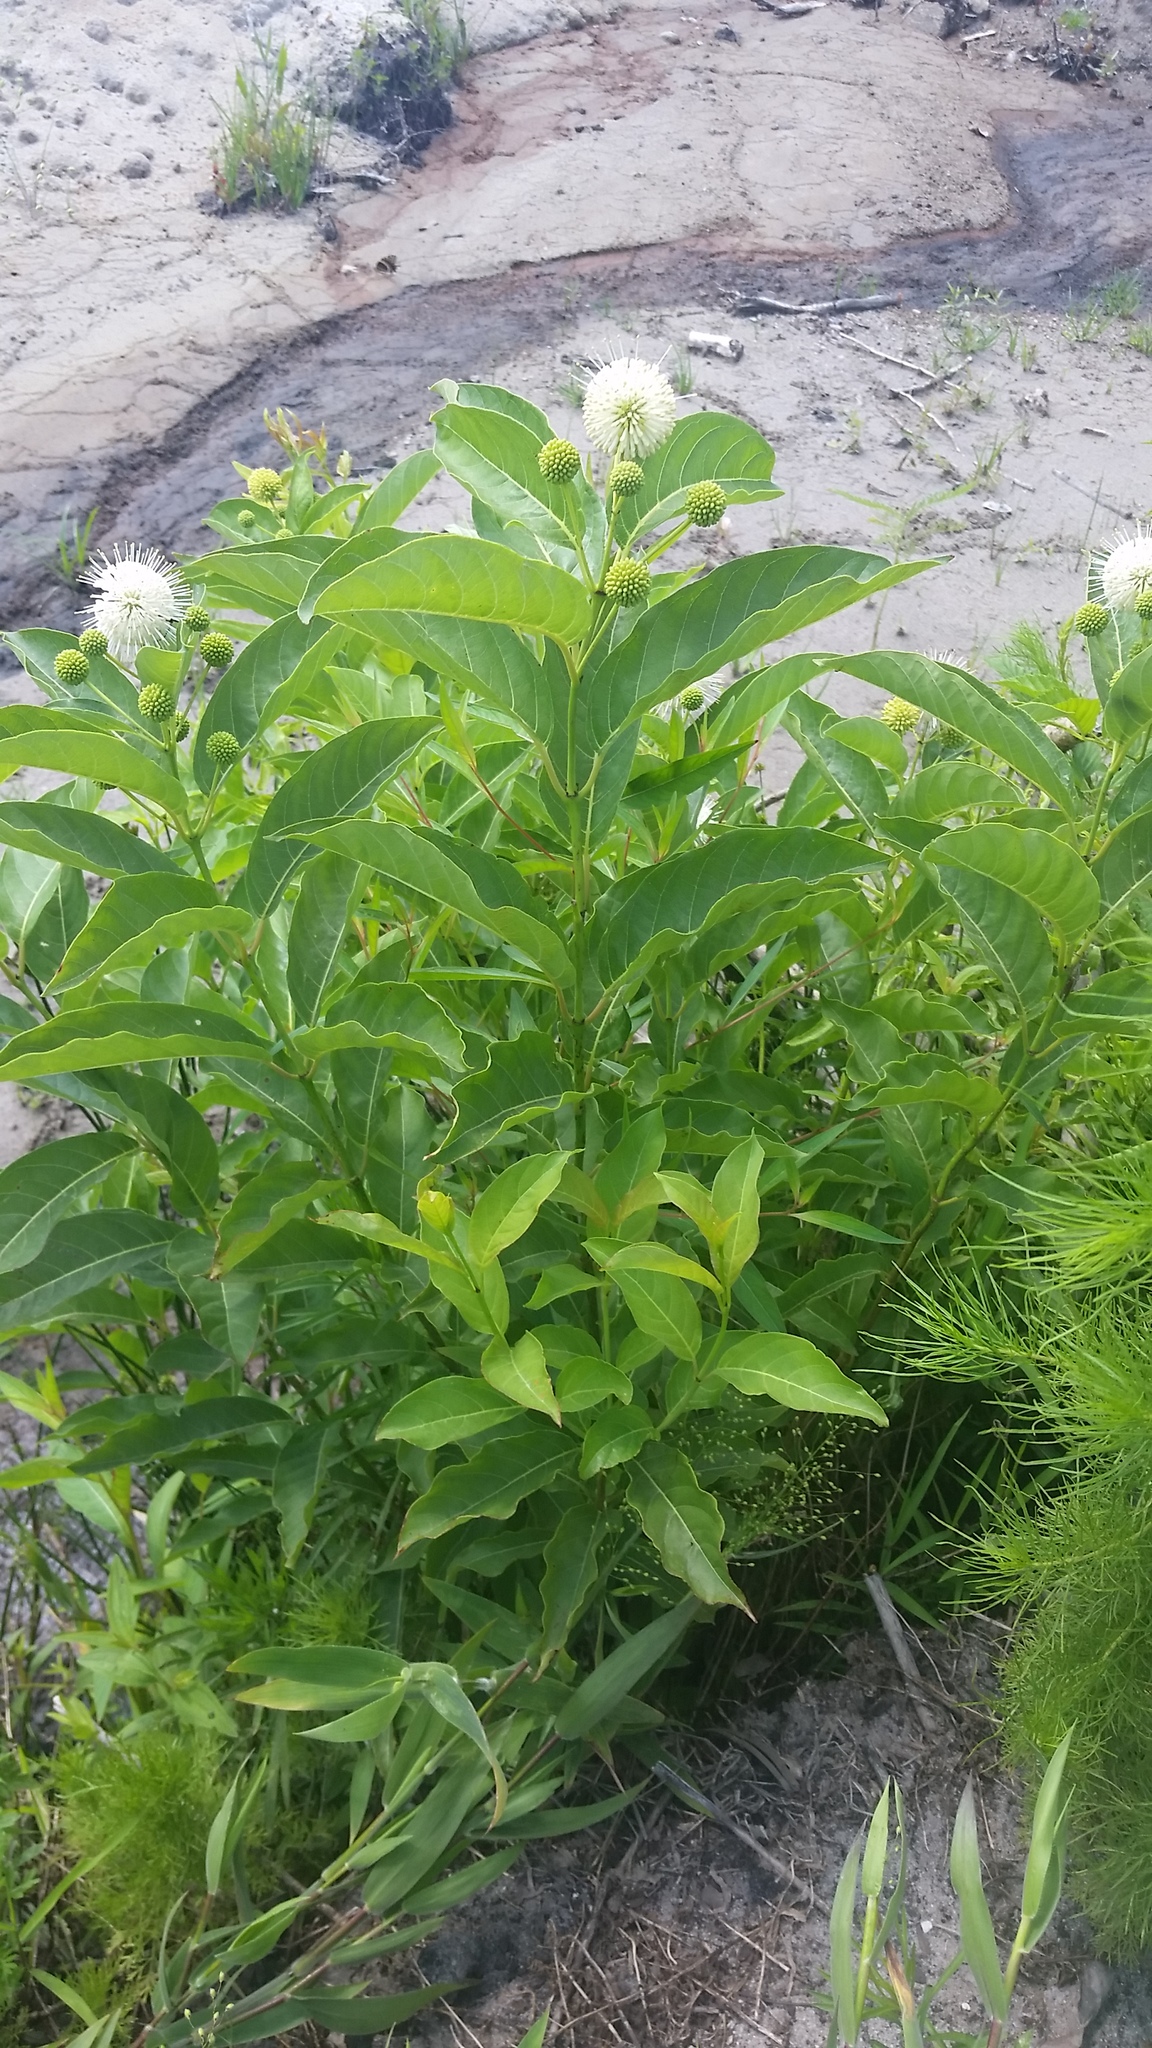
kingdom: Plantae
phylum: Tracheophyta
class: Magnoliopsida
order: Gentianales
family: Rubiaceae
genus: Cephalanthus
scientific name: Cephalanthus occidentalis
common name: Button-willow
